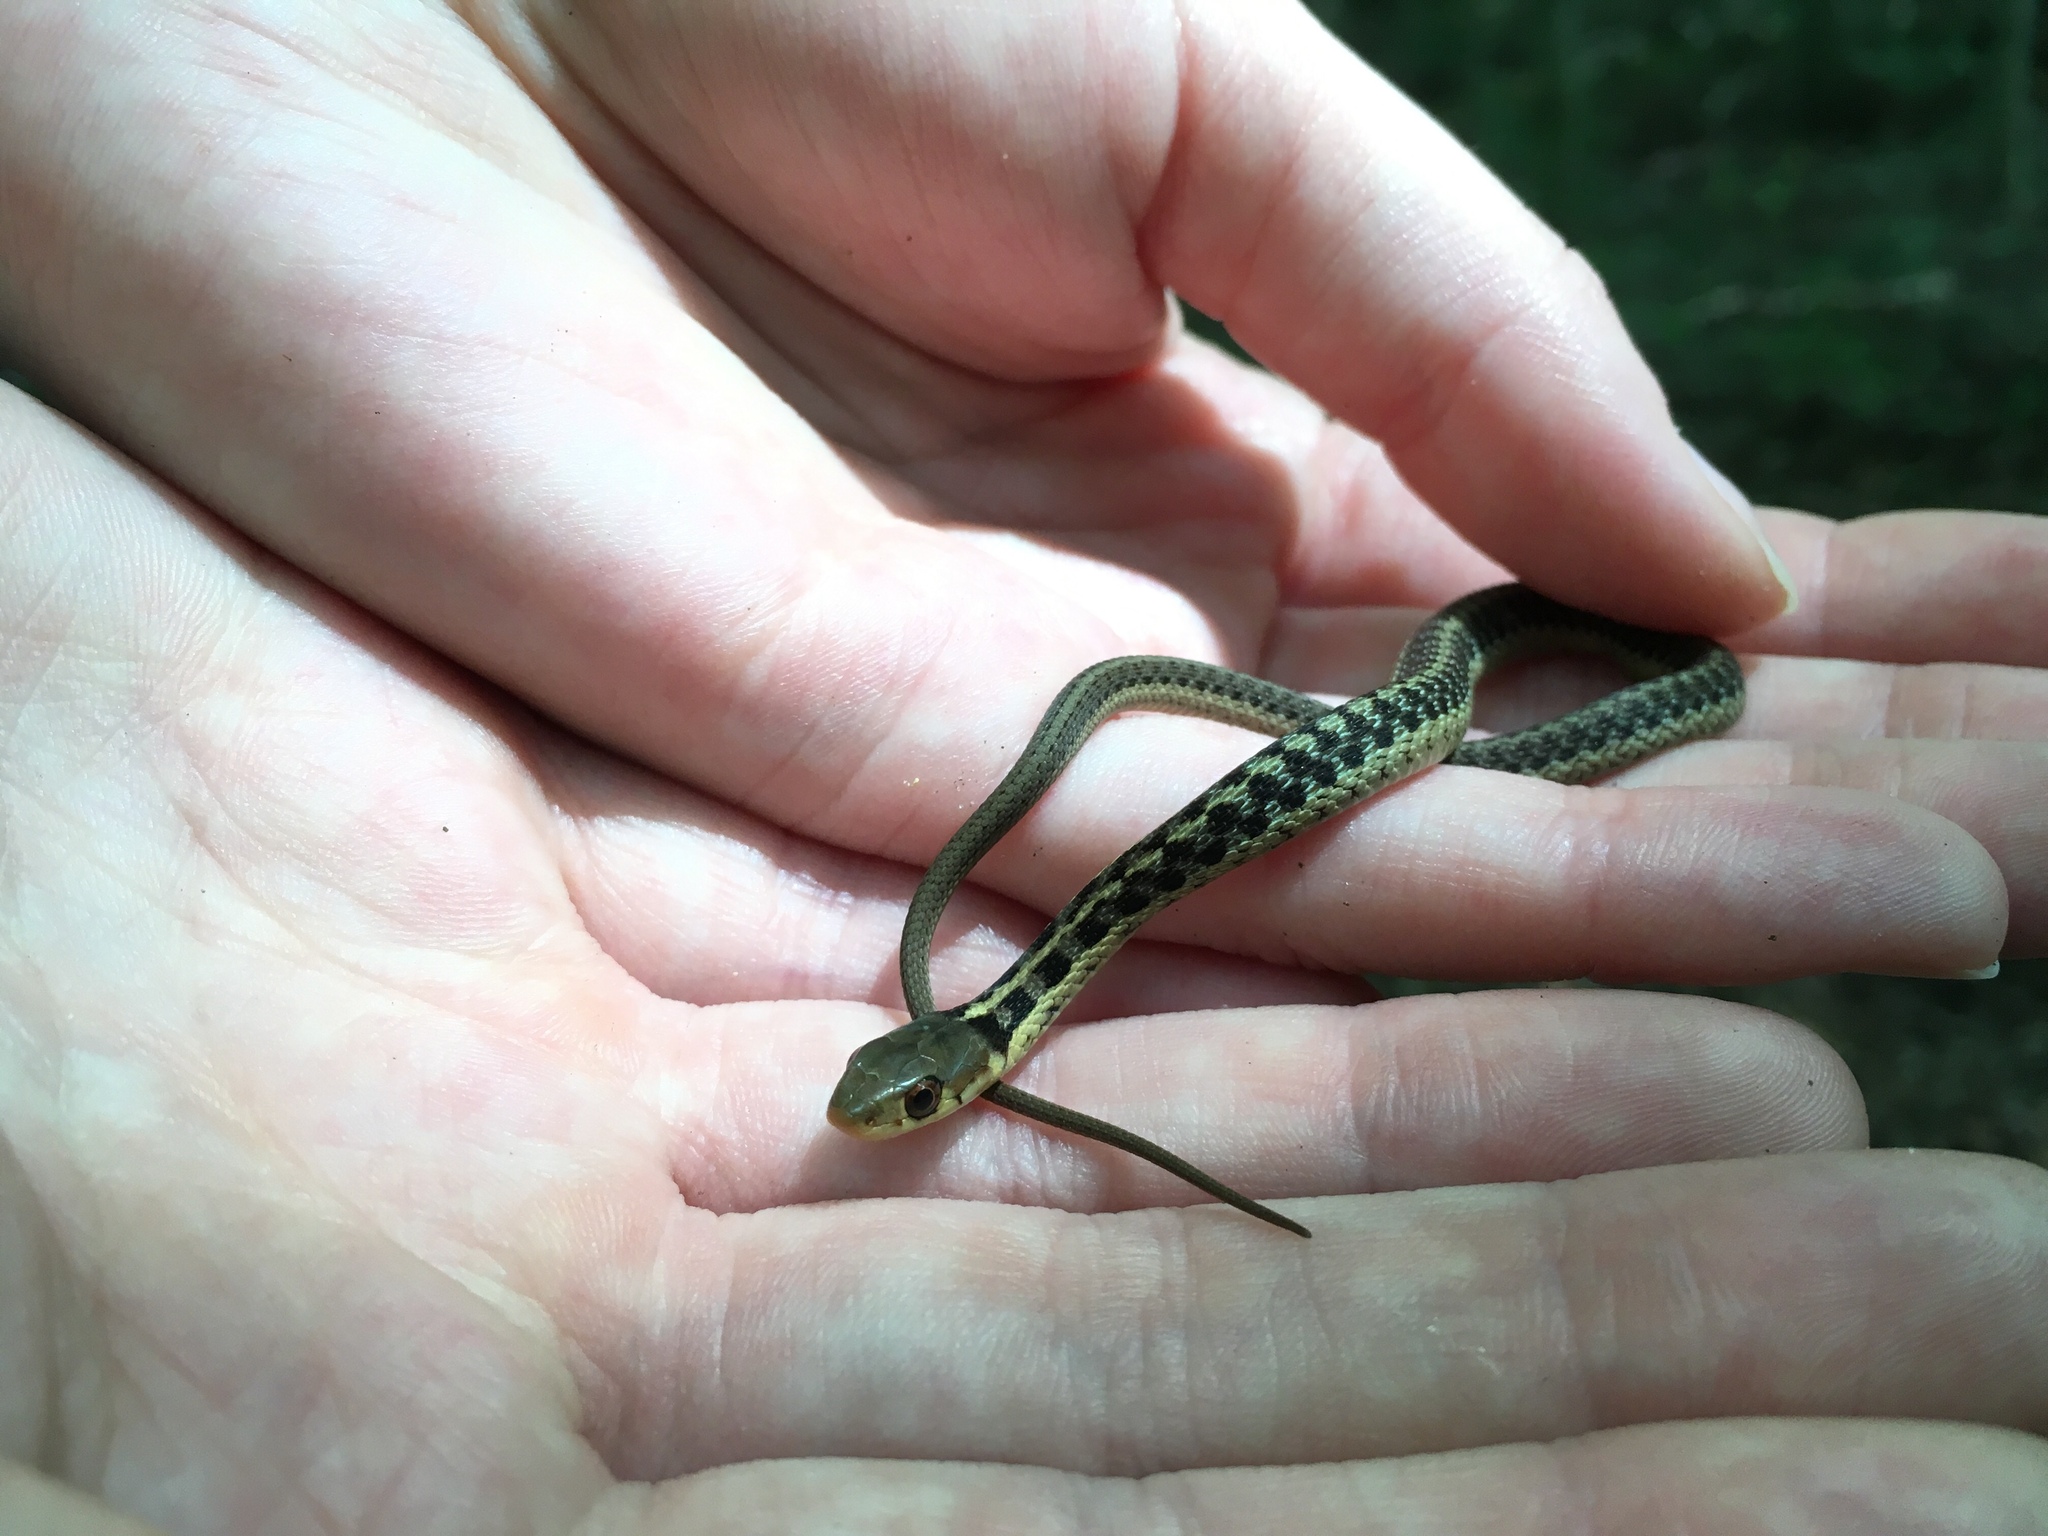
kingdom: Animalia
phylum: Chordata
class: Squamata
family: Colubridae
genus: Thamnophis
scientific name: Thamnophis sirtalis
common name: Common garter snake
